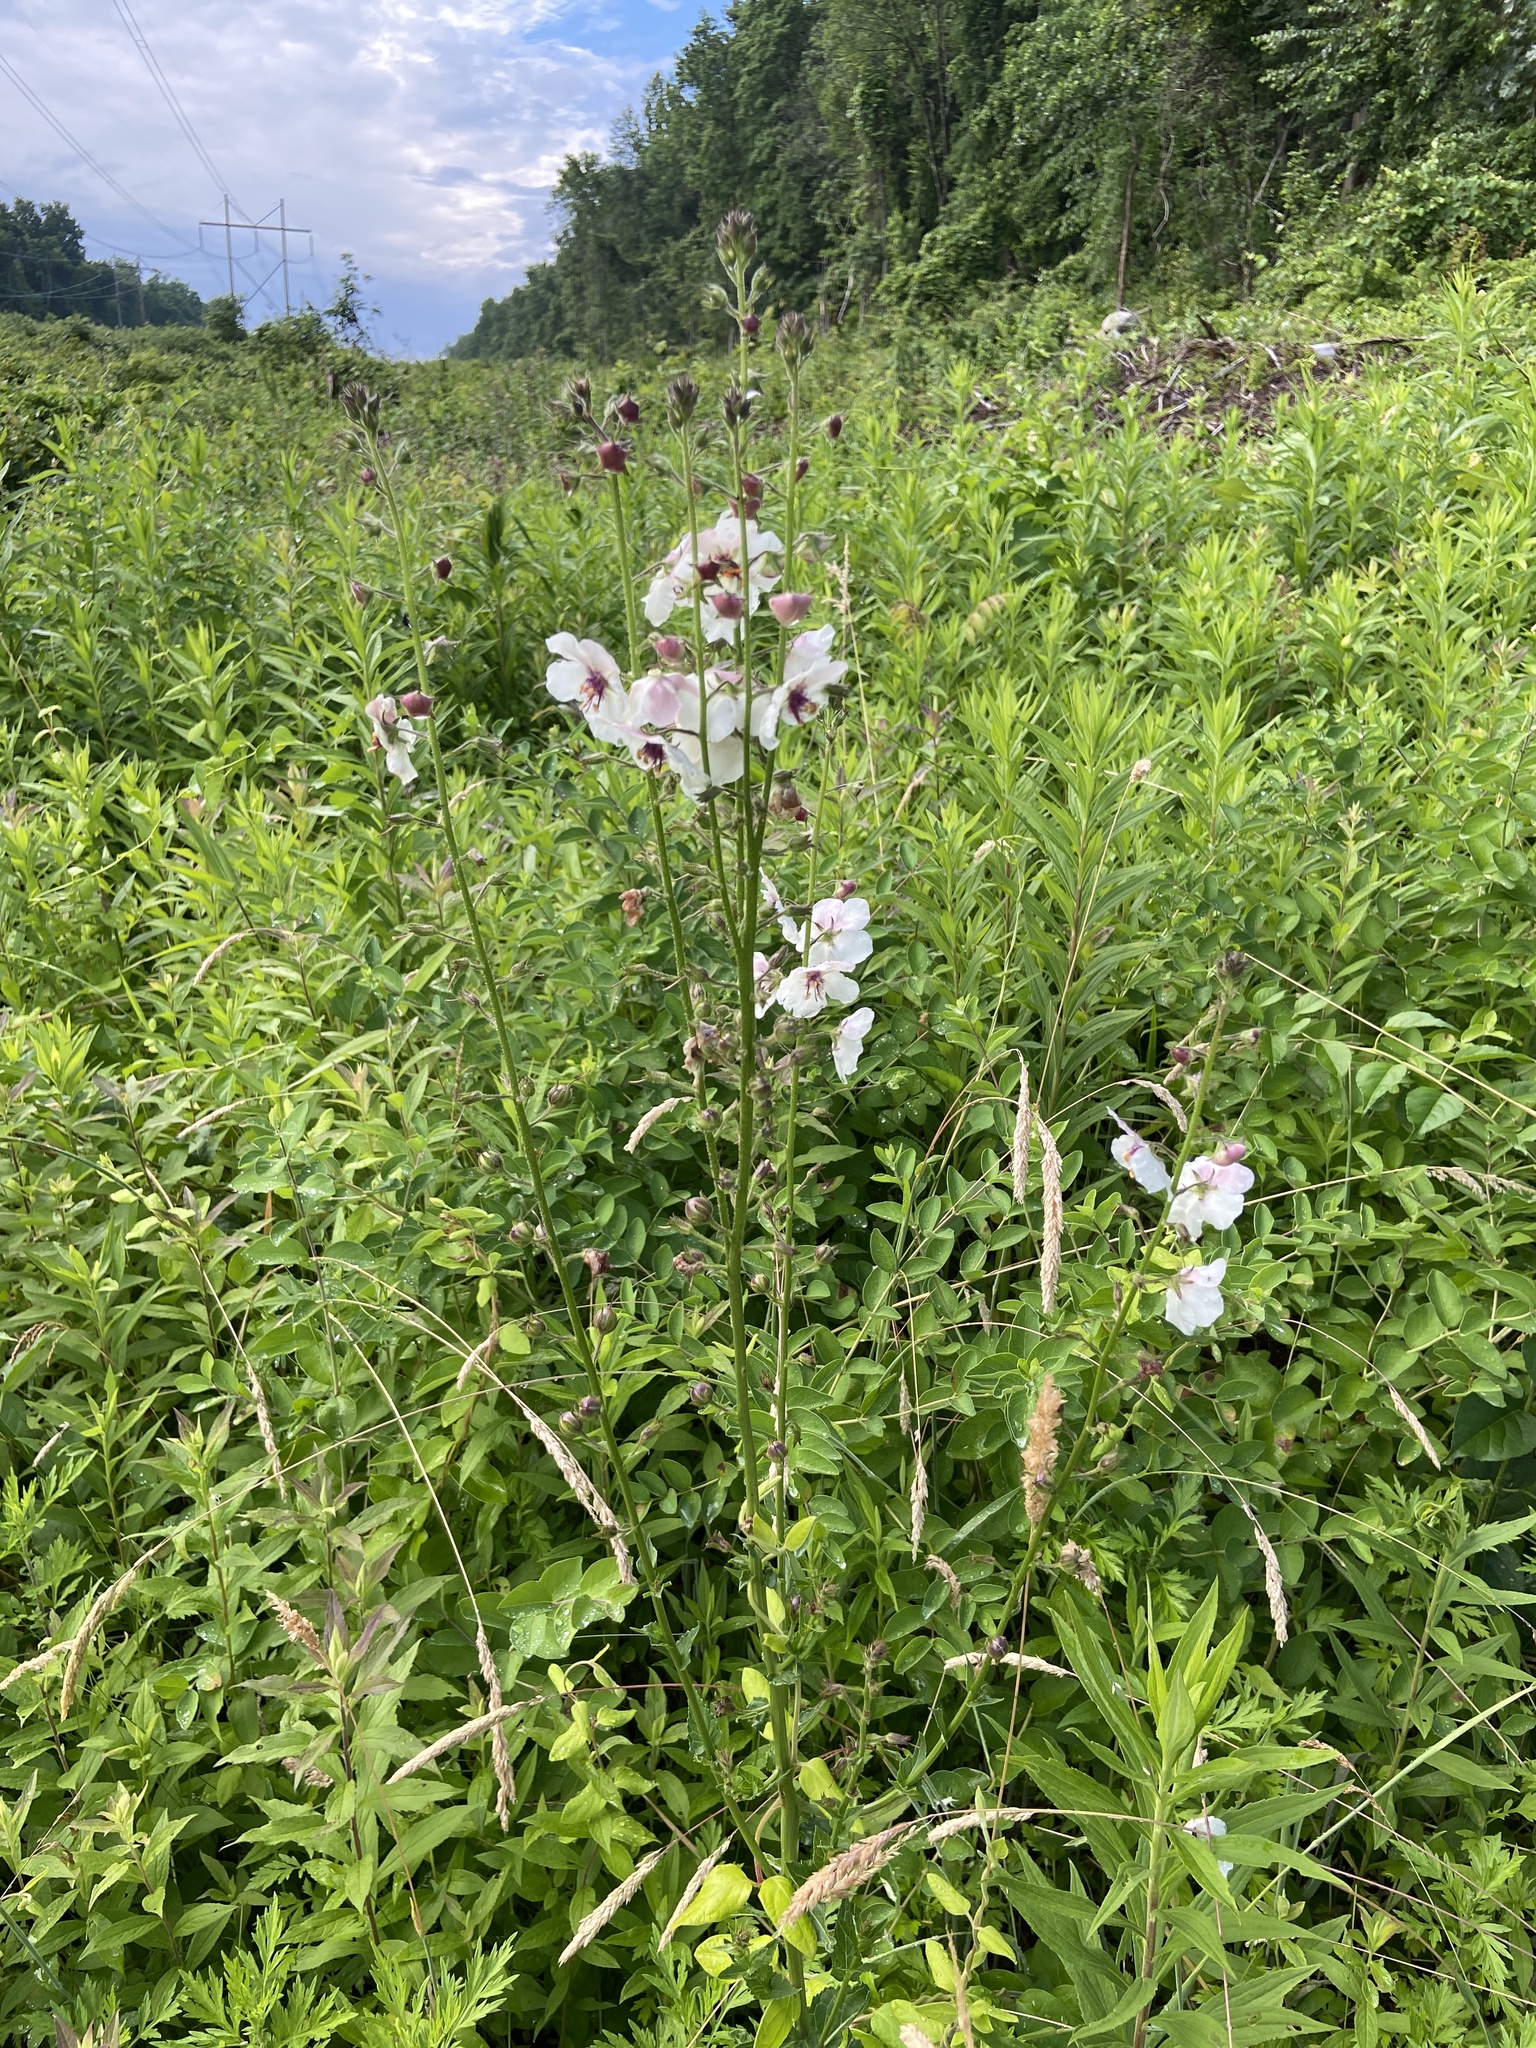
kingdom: Plantae
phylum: Tracheophyta
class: Magnoliopsida
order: Lamiales
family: Scrophulariaceae
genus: Verbascum
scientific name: Verbascum blattaria
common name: Moth mullein
